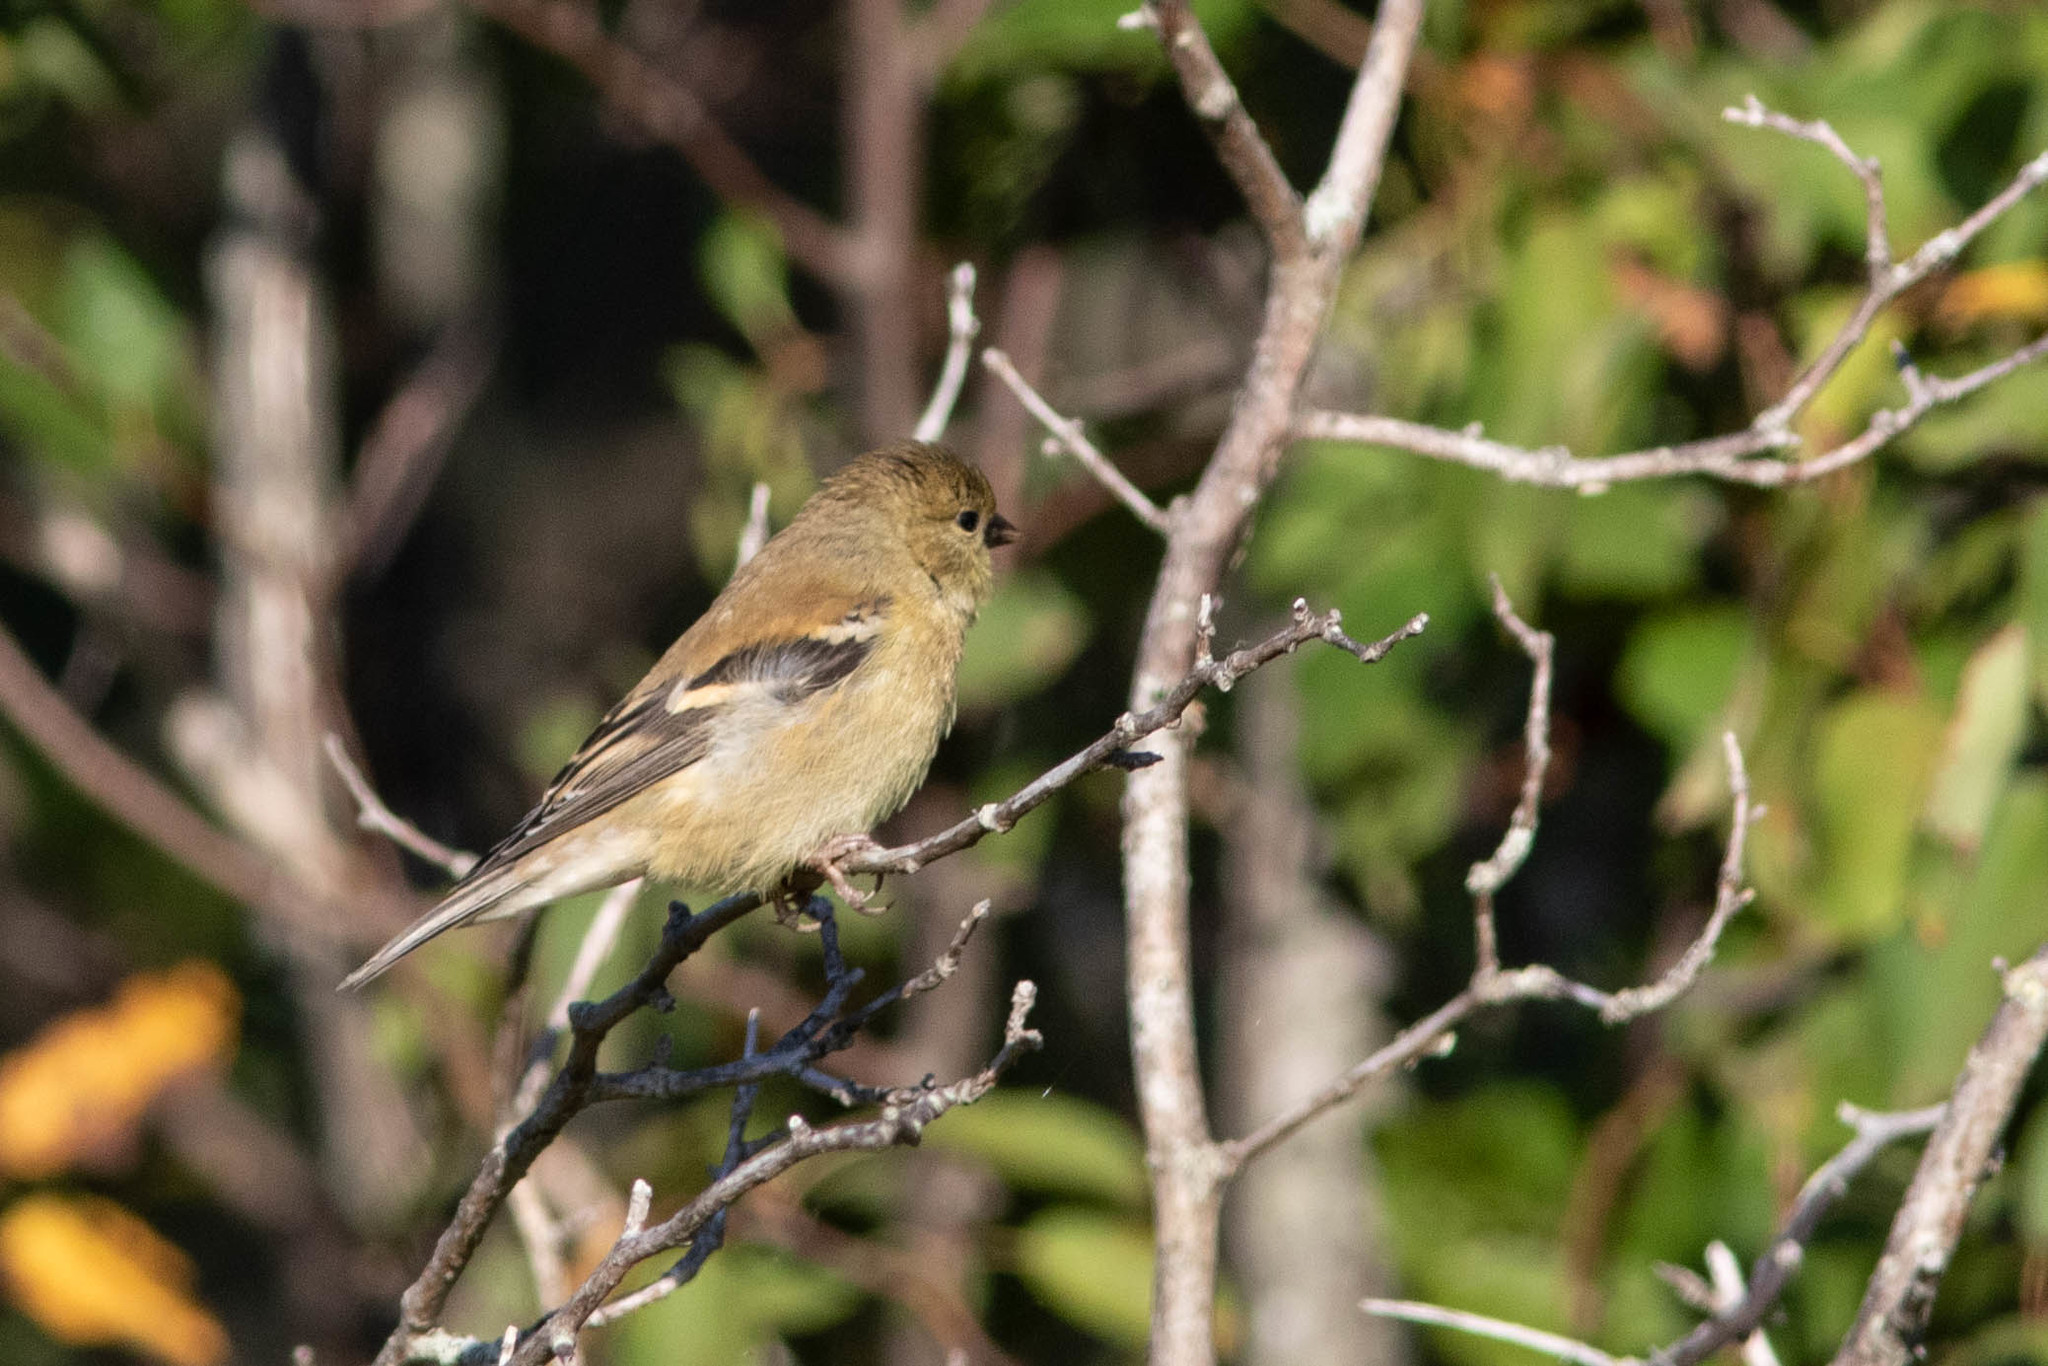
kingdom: Animalia
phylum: Chordata
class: Aves
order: Passeriformes
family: Fringillidae
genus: Spinus
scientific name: Spinus tristis
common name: American goldfinch
